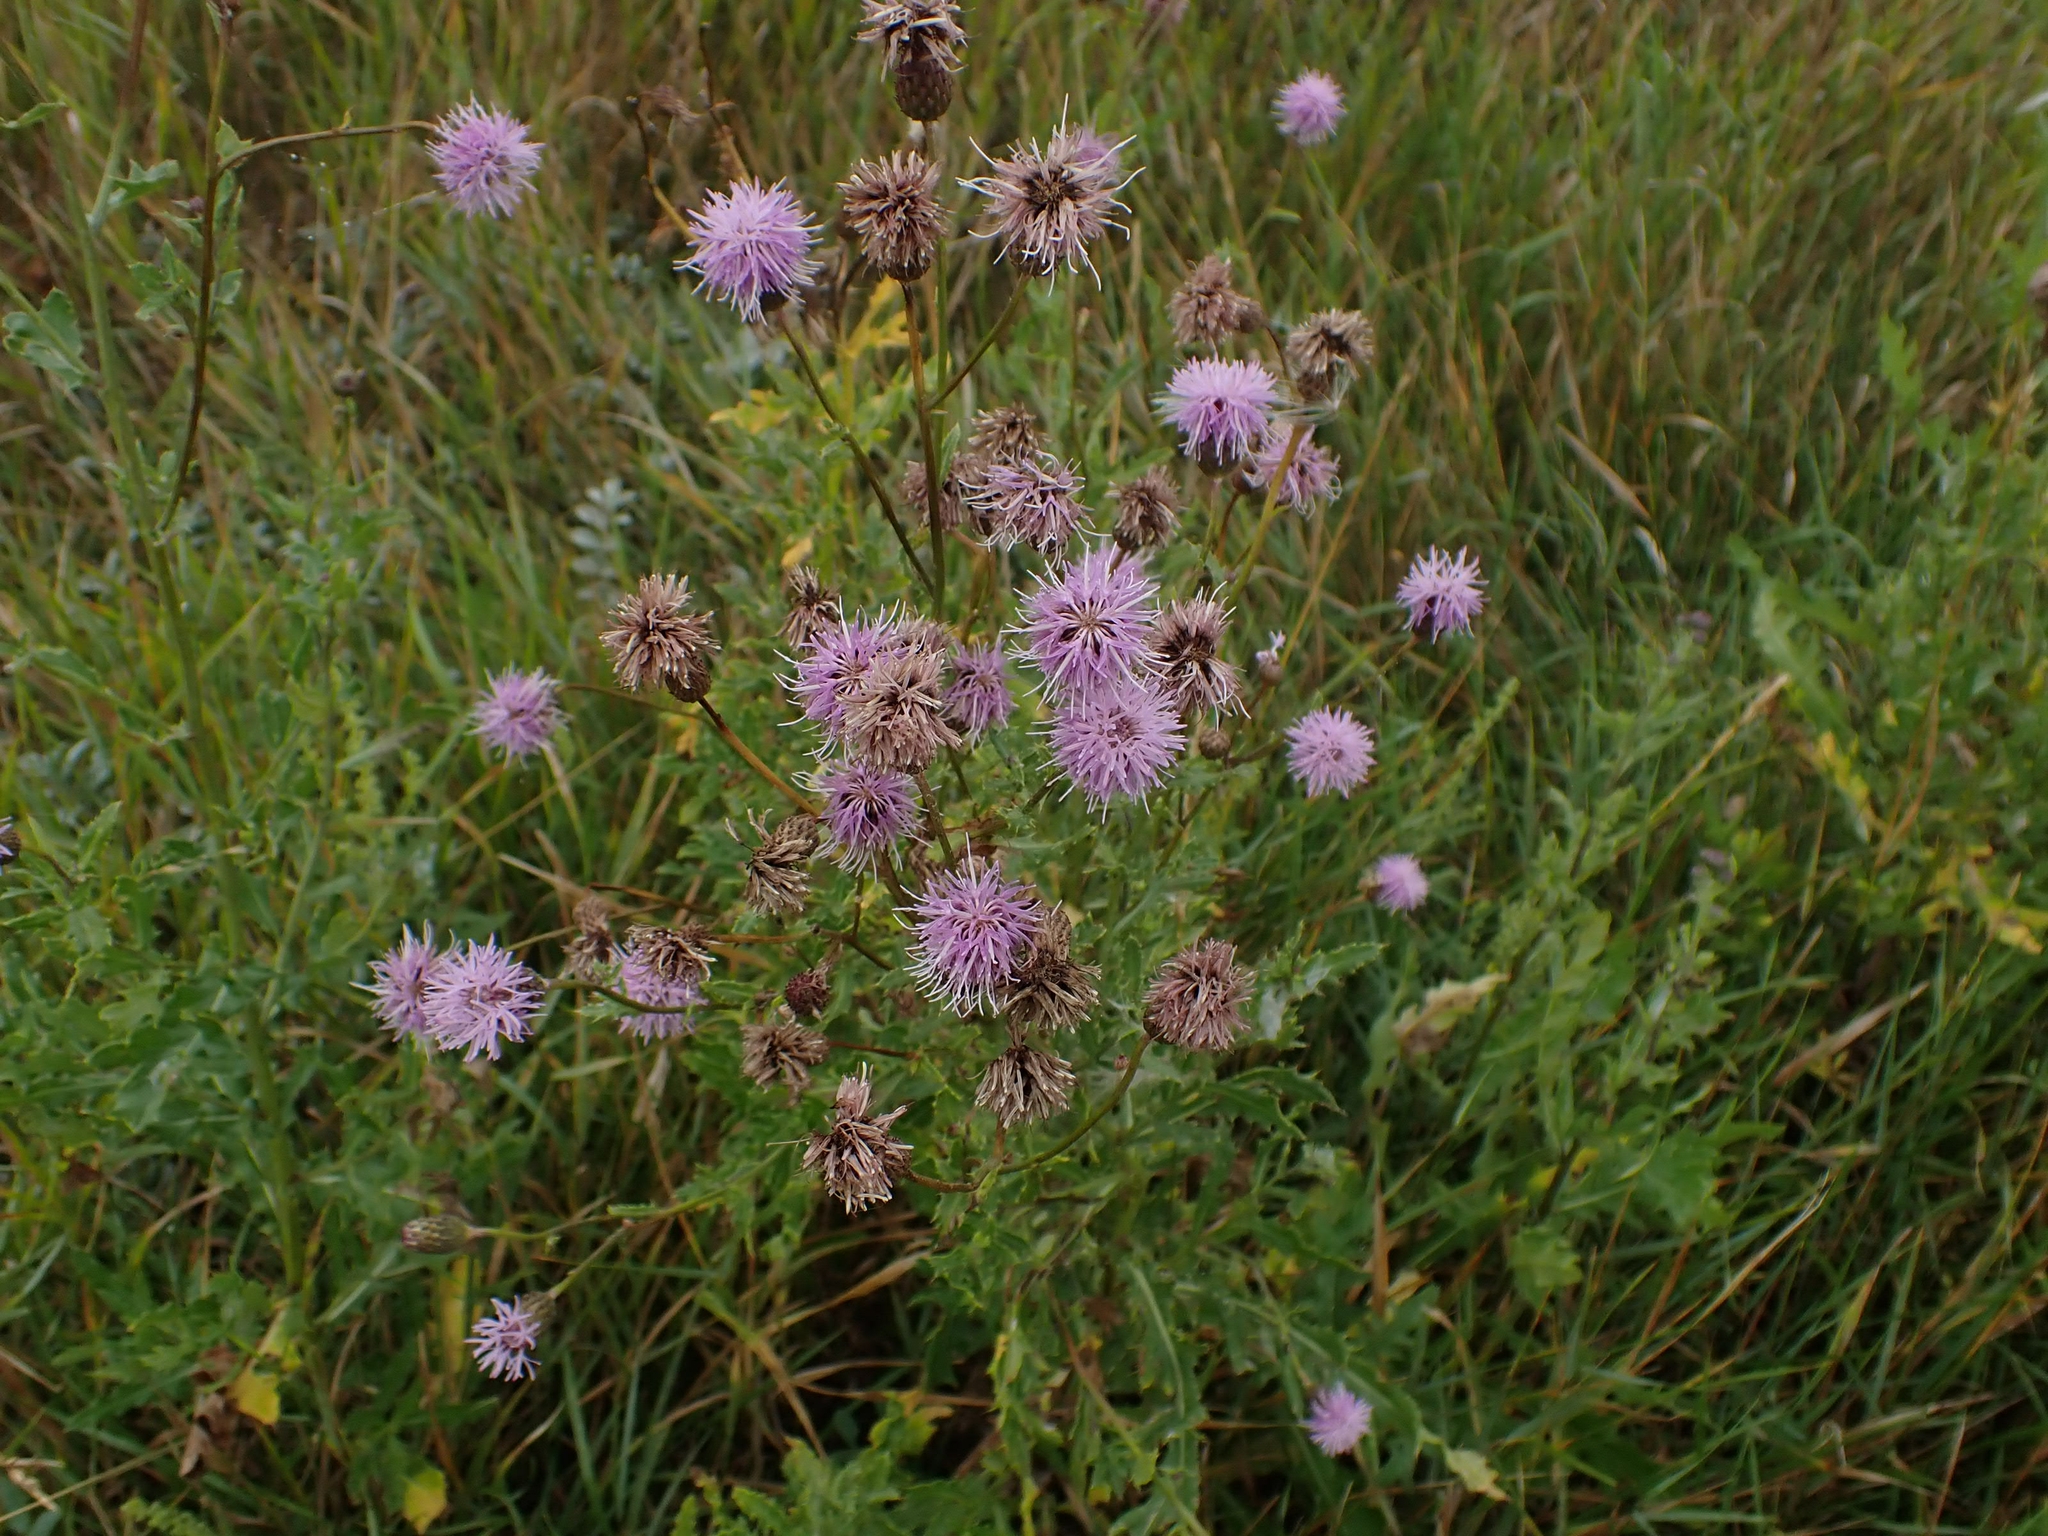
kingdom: Plantae
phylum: Tracheophyta
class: Magnoliopsida
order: Asterales
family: Asteraceae
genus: Cirsium
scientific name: Cirsium arvense
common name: Creeping thistle
